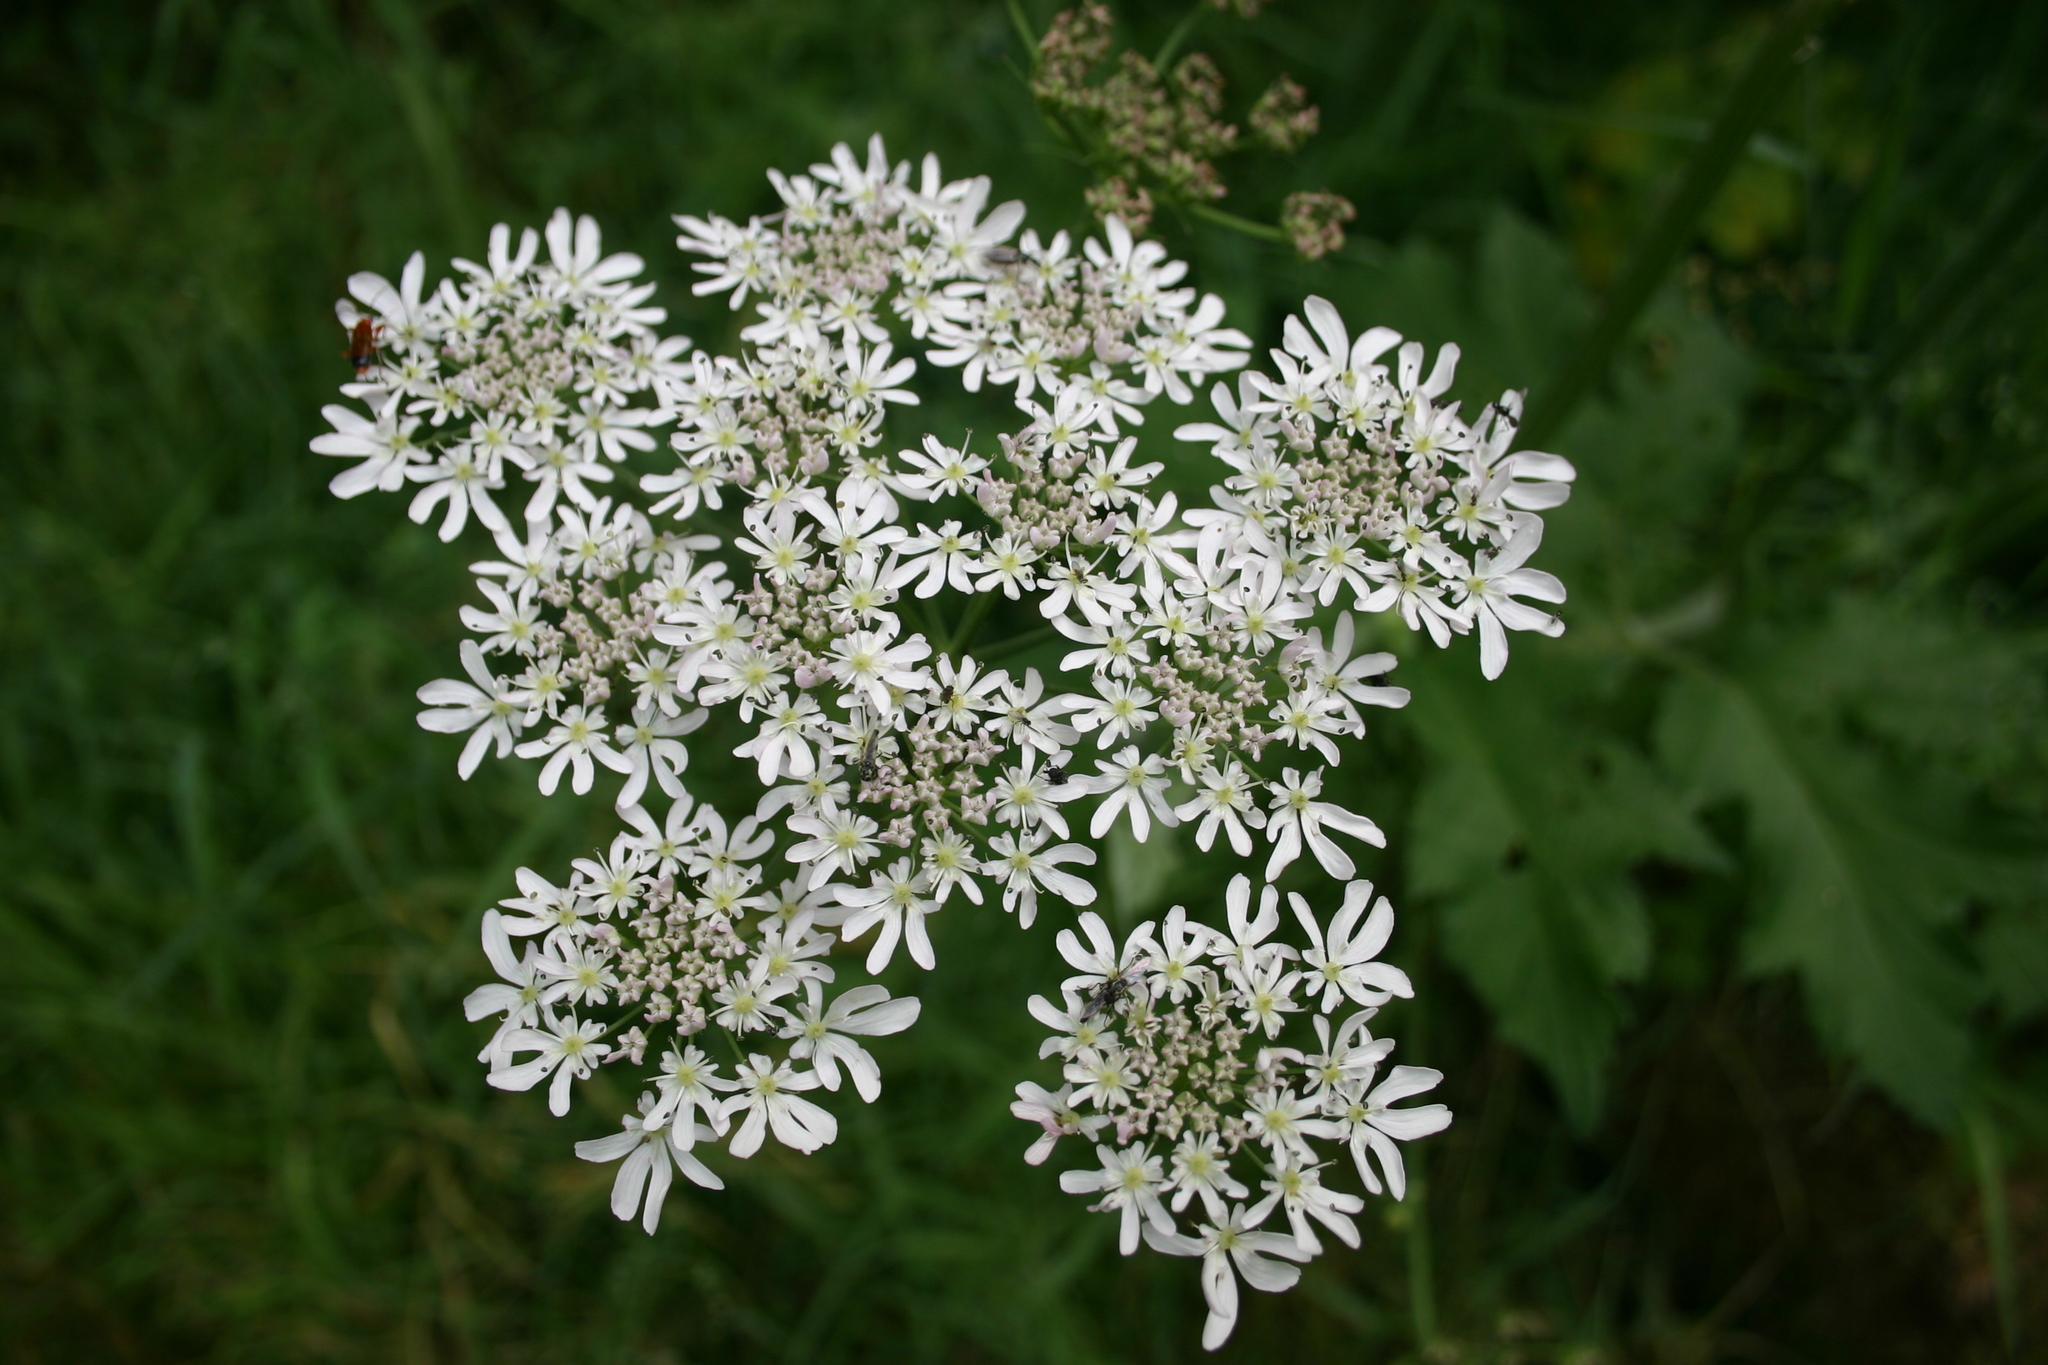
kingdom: Plantae
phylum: Tracheophyta
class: Magnoliopsida
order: Apiales
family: Apiaceae
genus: Heracleum
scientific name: Heracleum sphondylium
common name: Hogweed
